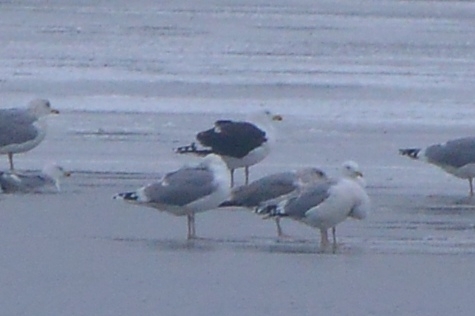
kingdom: Animalia
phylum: Chordata
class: Aves
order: Charadriiformes
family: Laridae
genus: Larus
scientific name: Larus marinus
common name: Great black-backed gull
